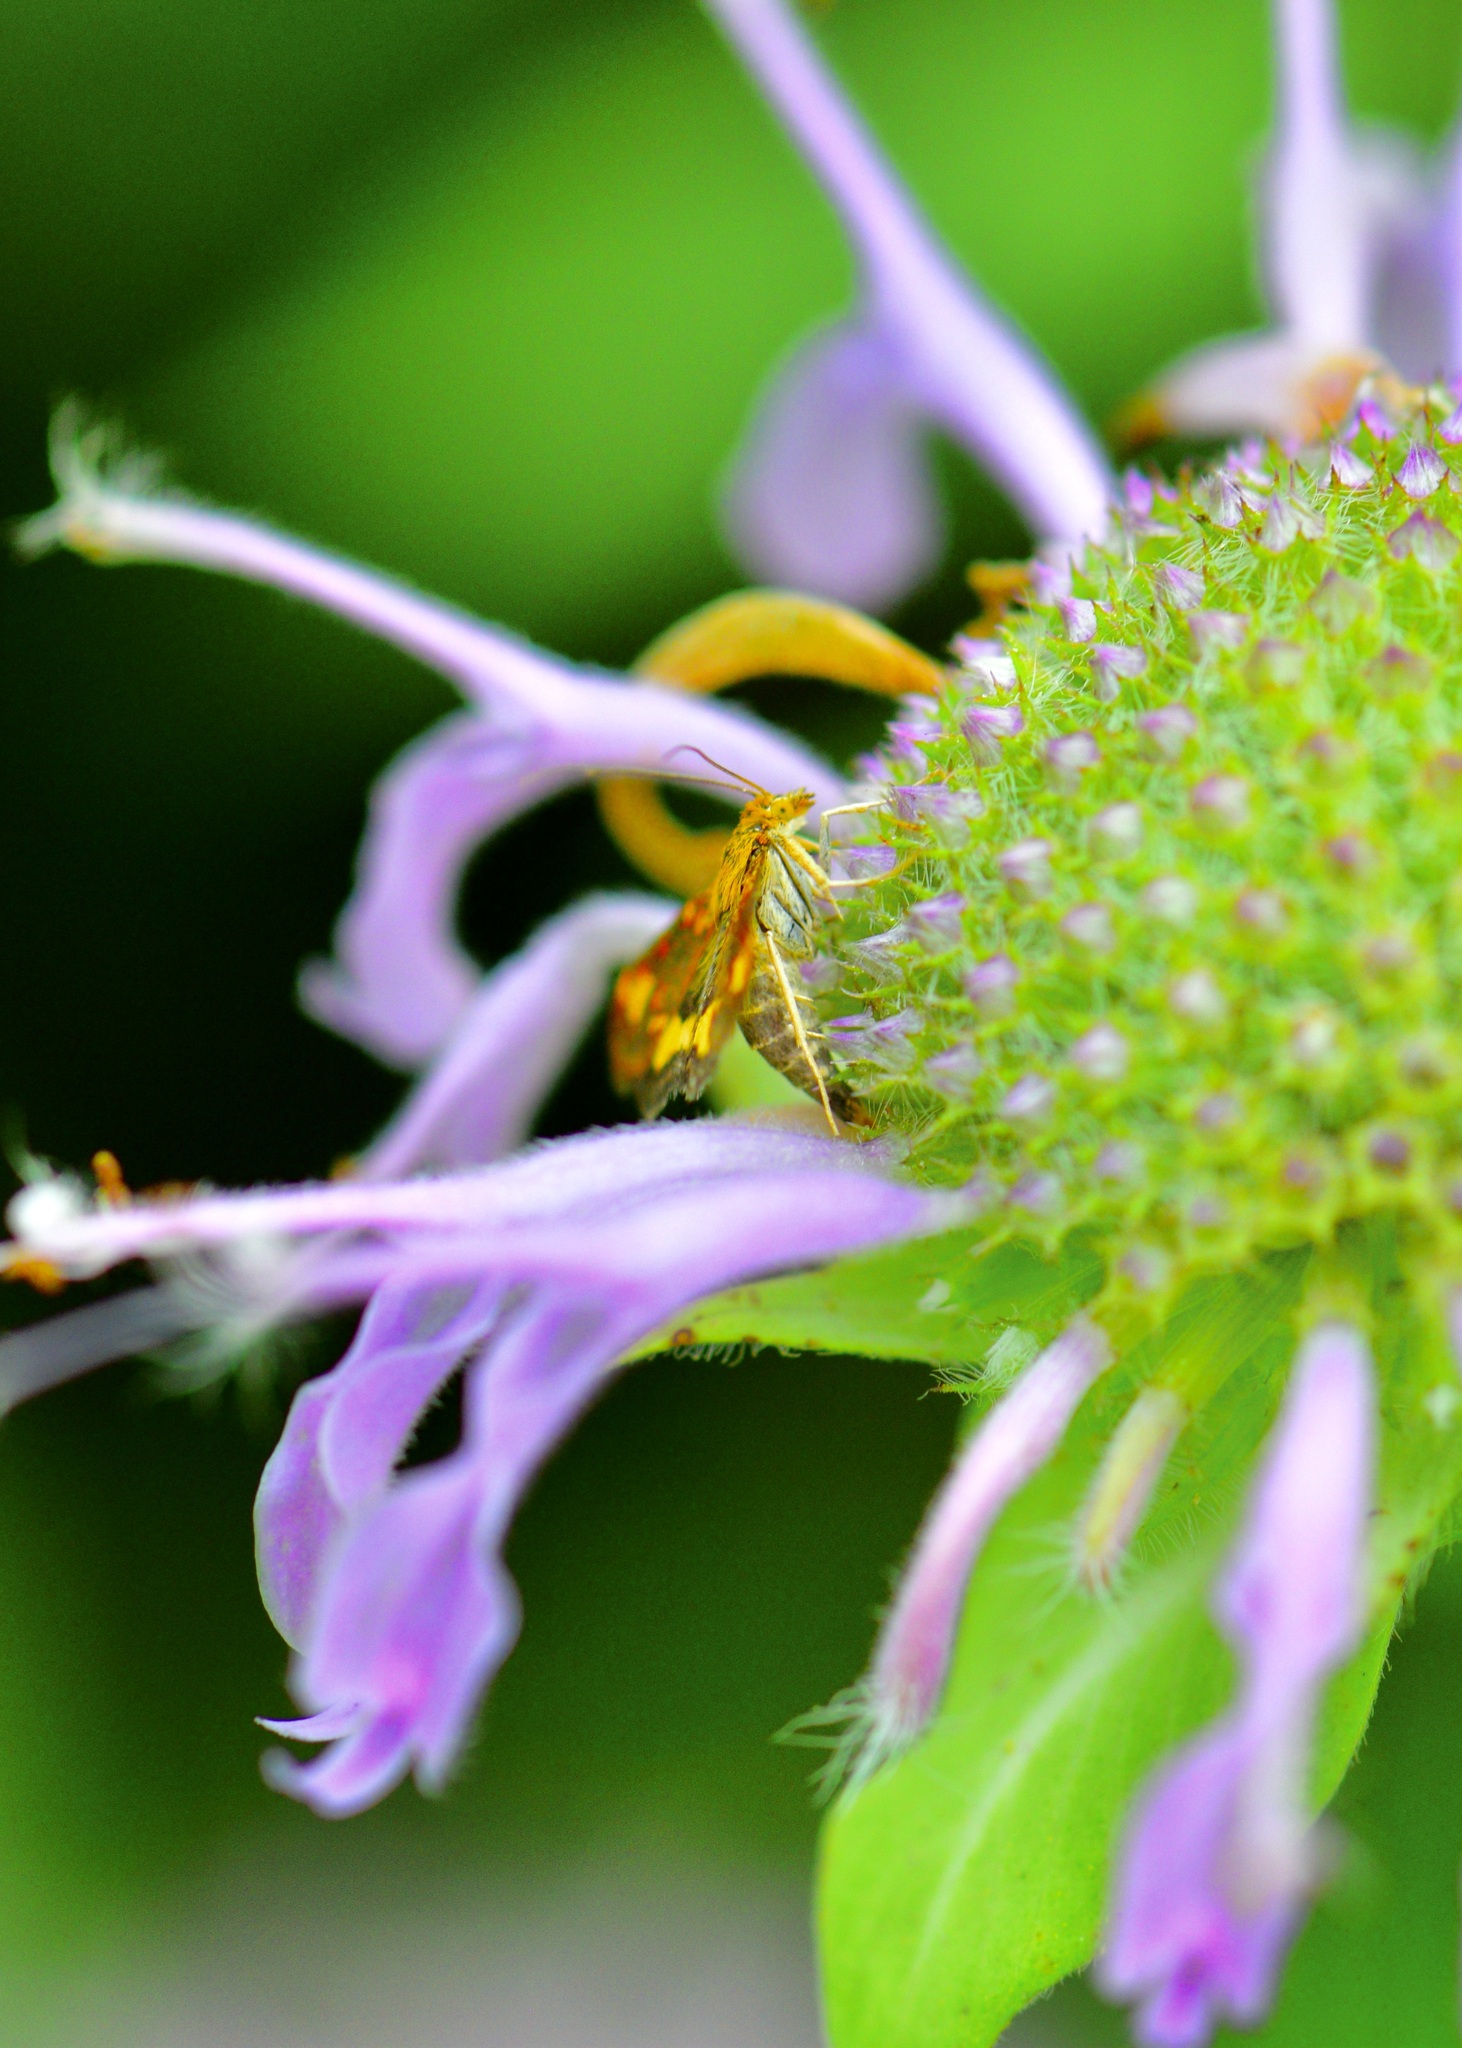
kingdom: Animalia
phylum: Arthropoda
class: Insecta
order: Lepidoptera
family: Crambidae
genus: Pyrausta
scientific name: Pyrausta orphisalis
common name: Orange mint moth
